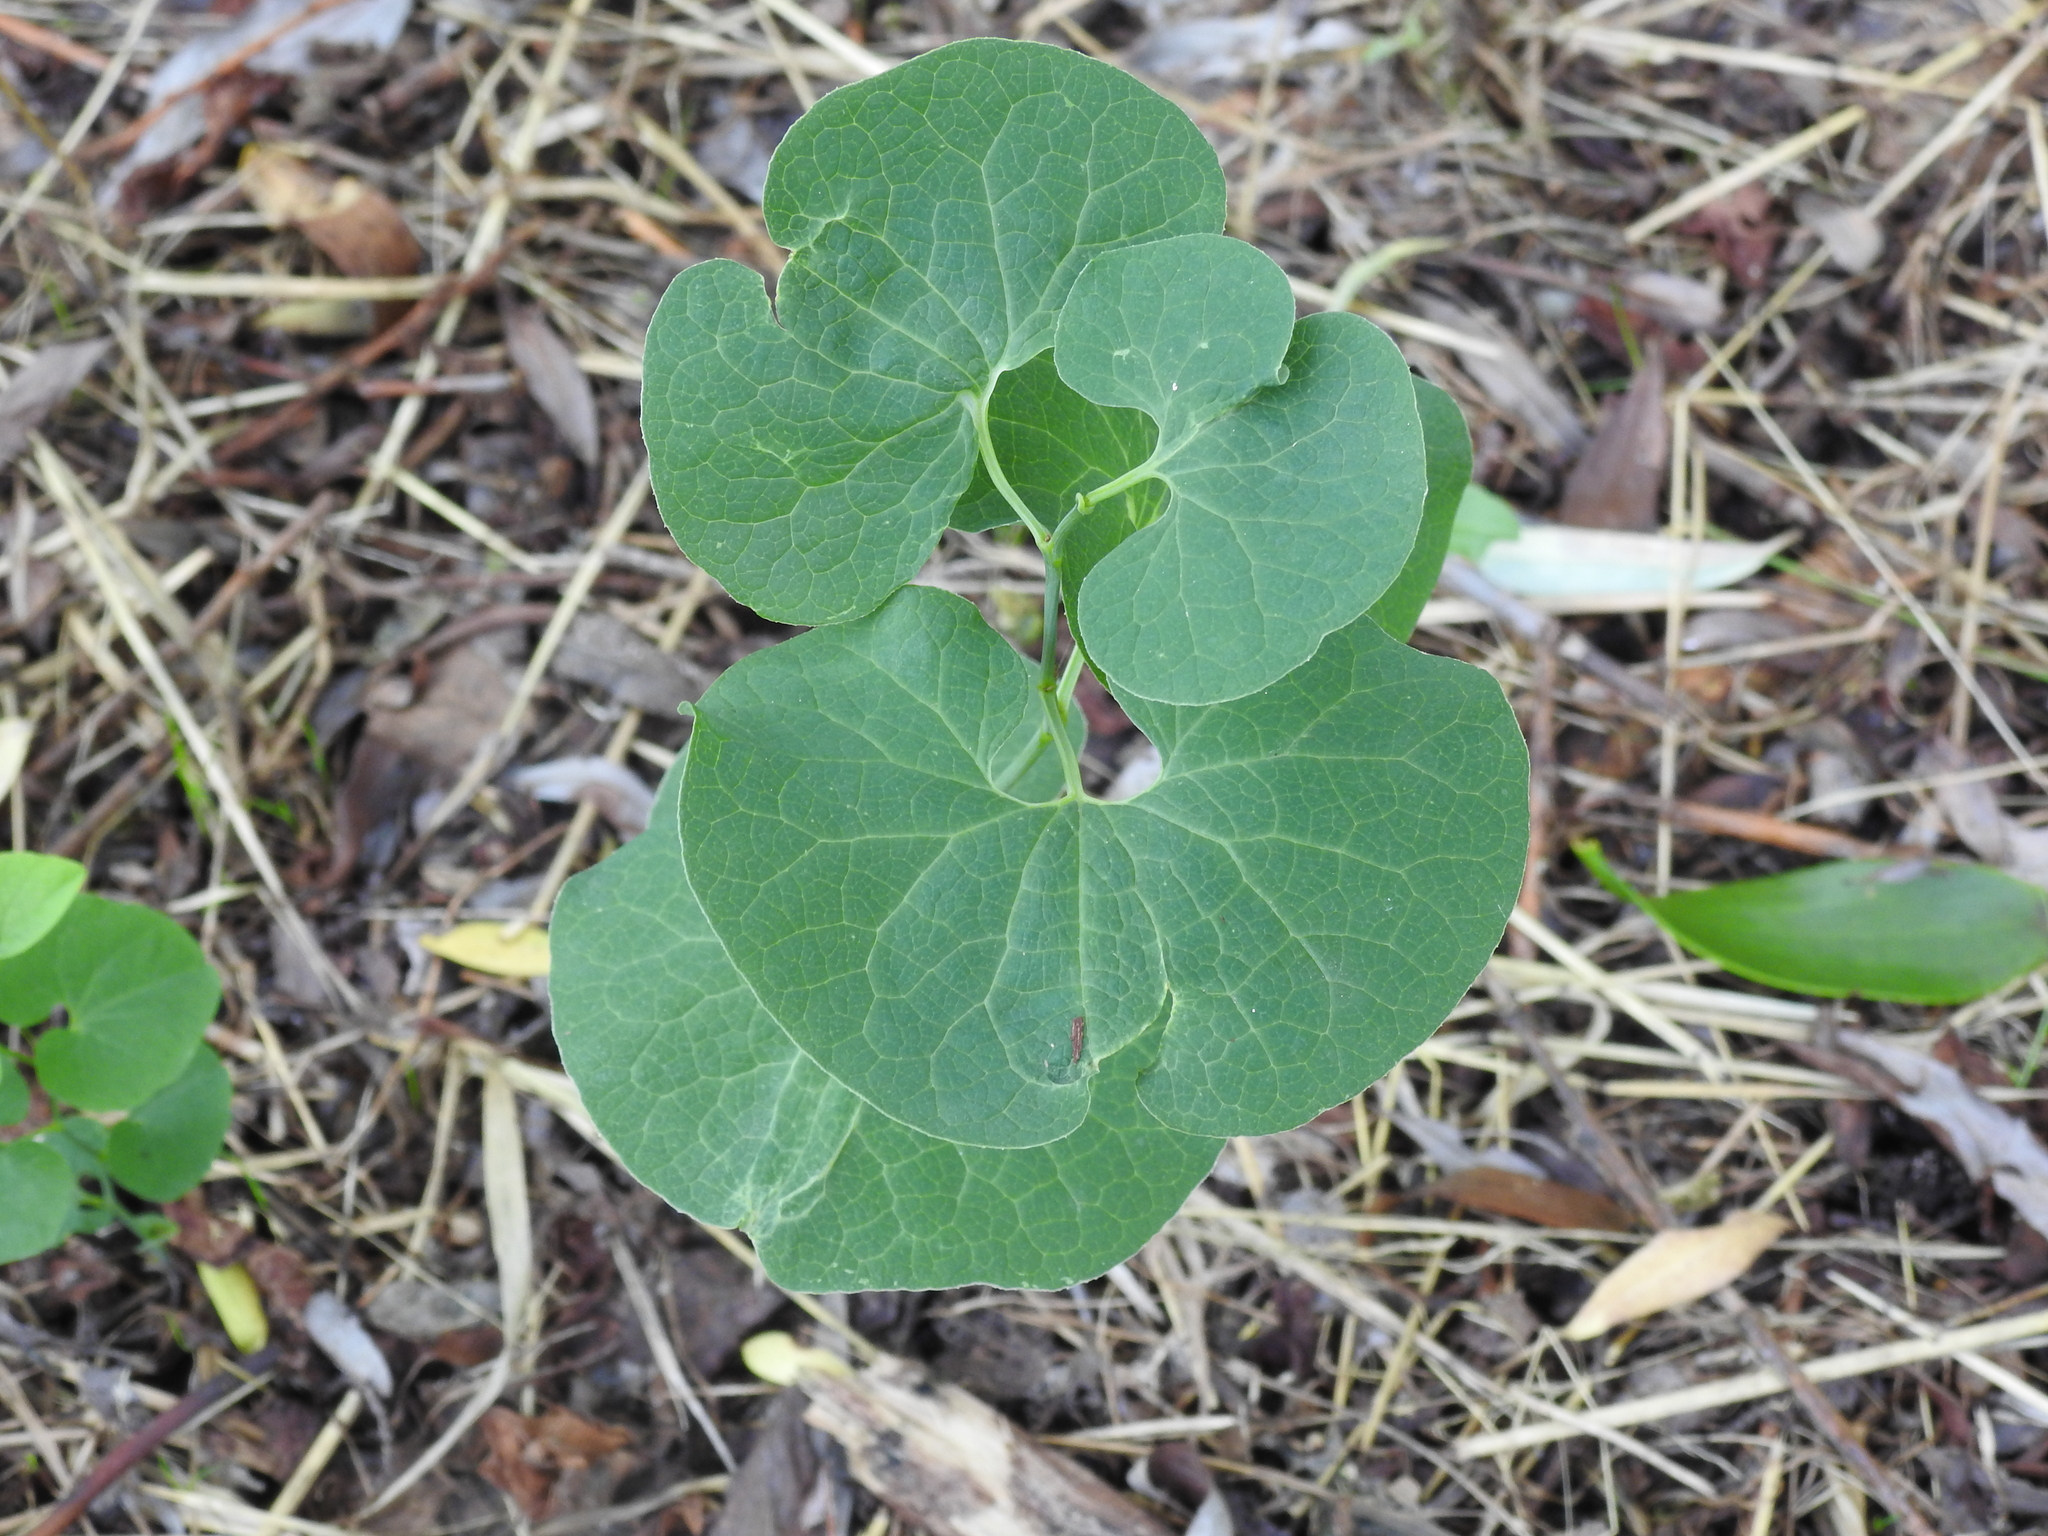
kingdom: Plantae
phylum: Tracheophyta
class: Magnoliopsida
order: Piperales
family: Aristolochiaceae
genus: Aristolochia
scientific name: Aristolochia clematitis
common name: Birthwort
